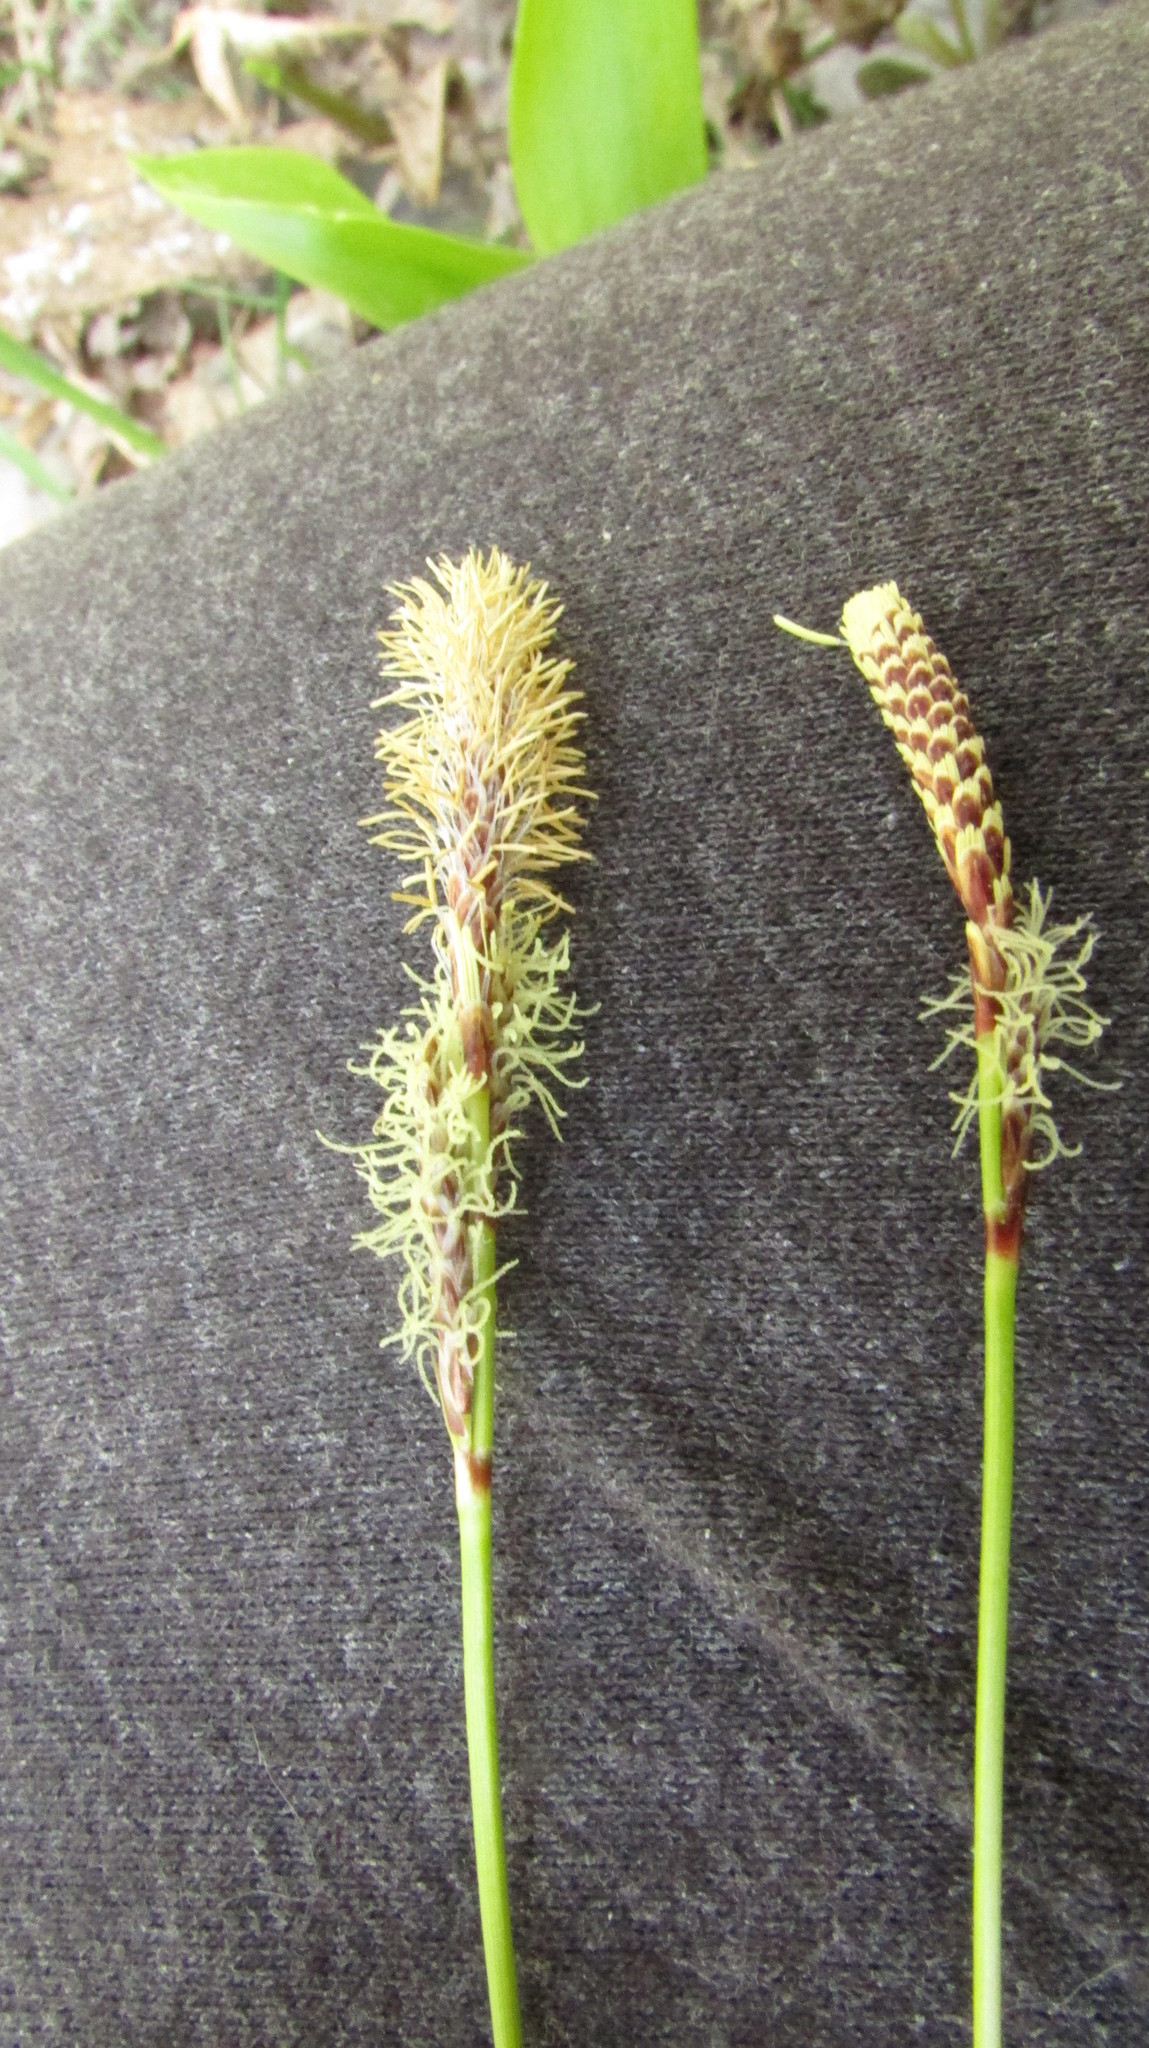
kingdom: Plantae
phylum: Tracheophyta
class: Liliopsida
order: Poales
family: Cyperaceae
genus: Carex
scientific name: Carex ericetorum
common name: Rare spring-sedge
